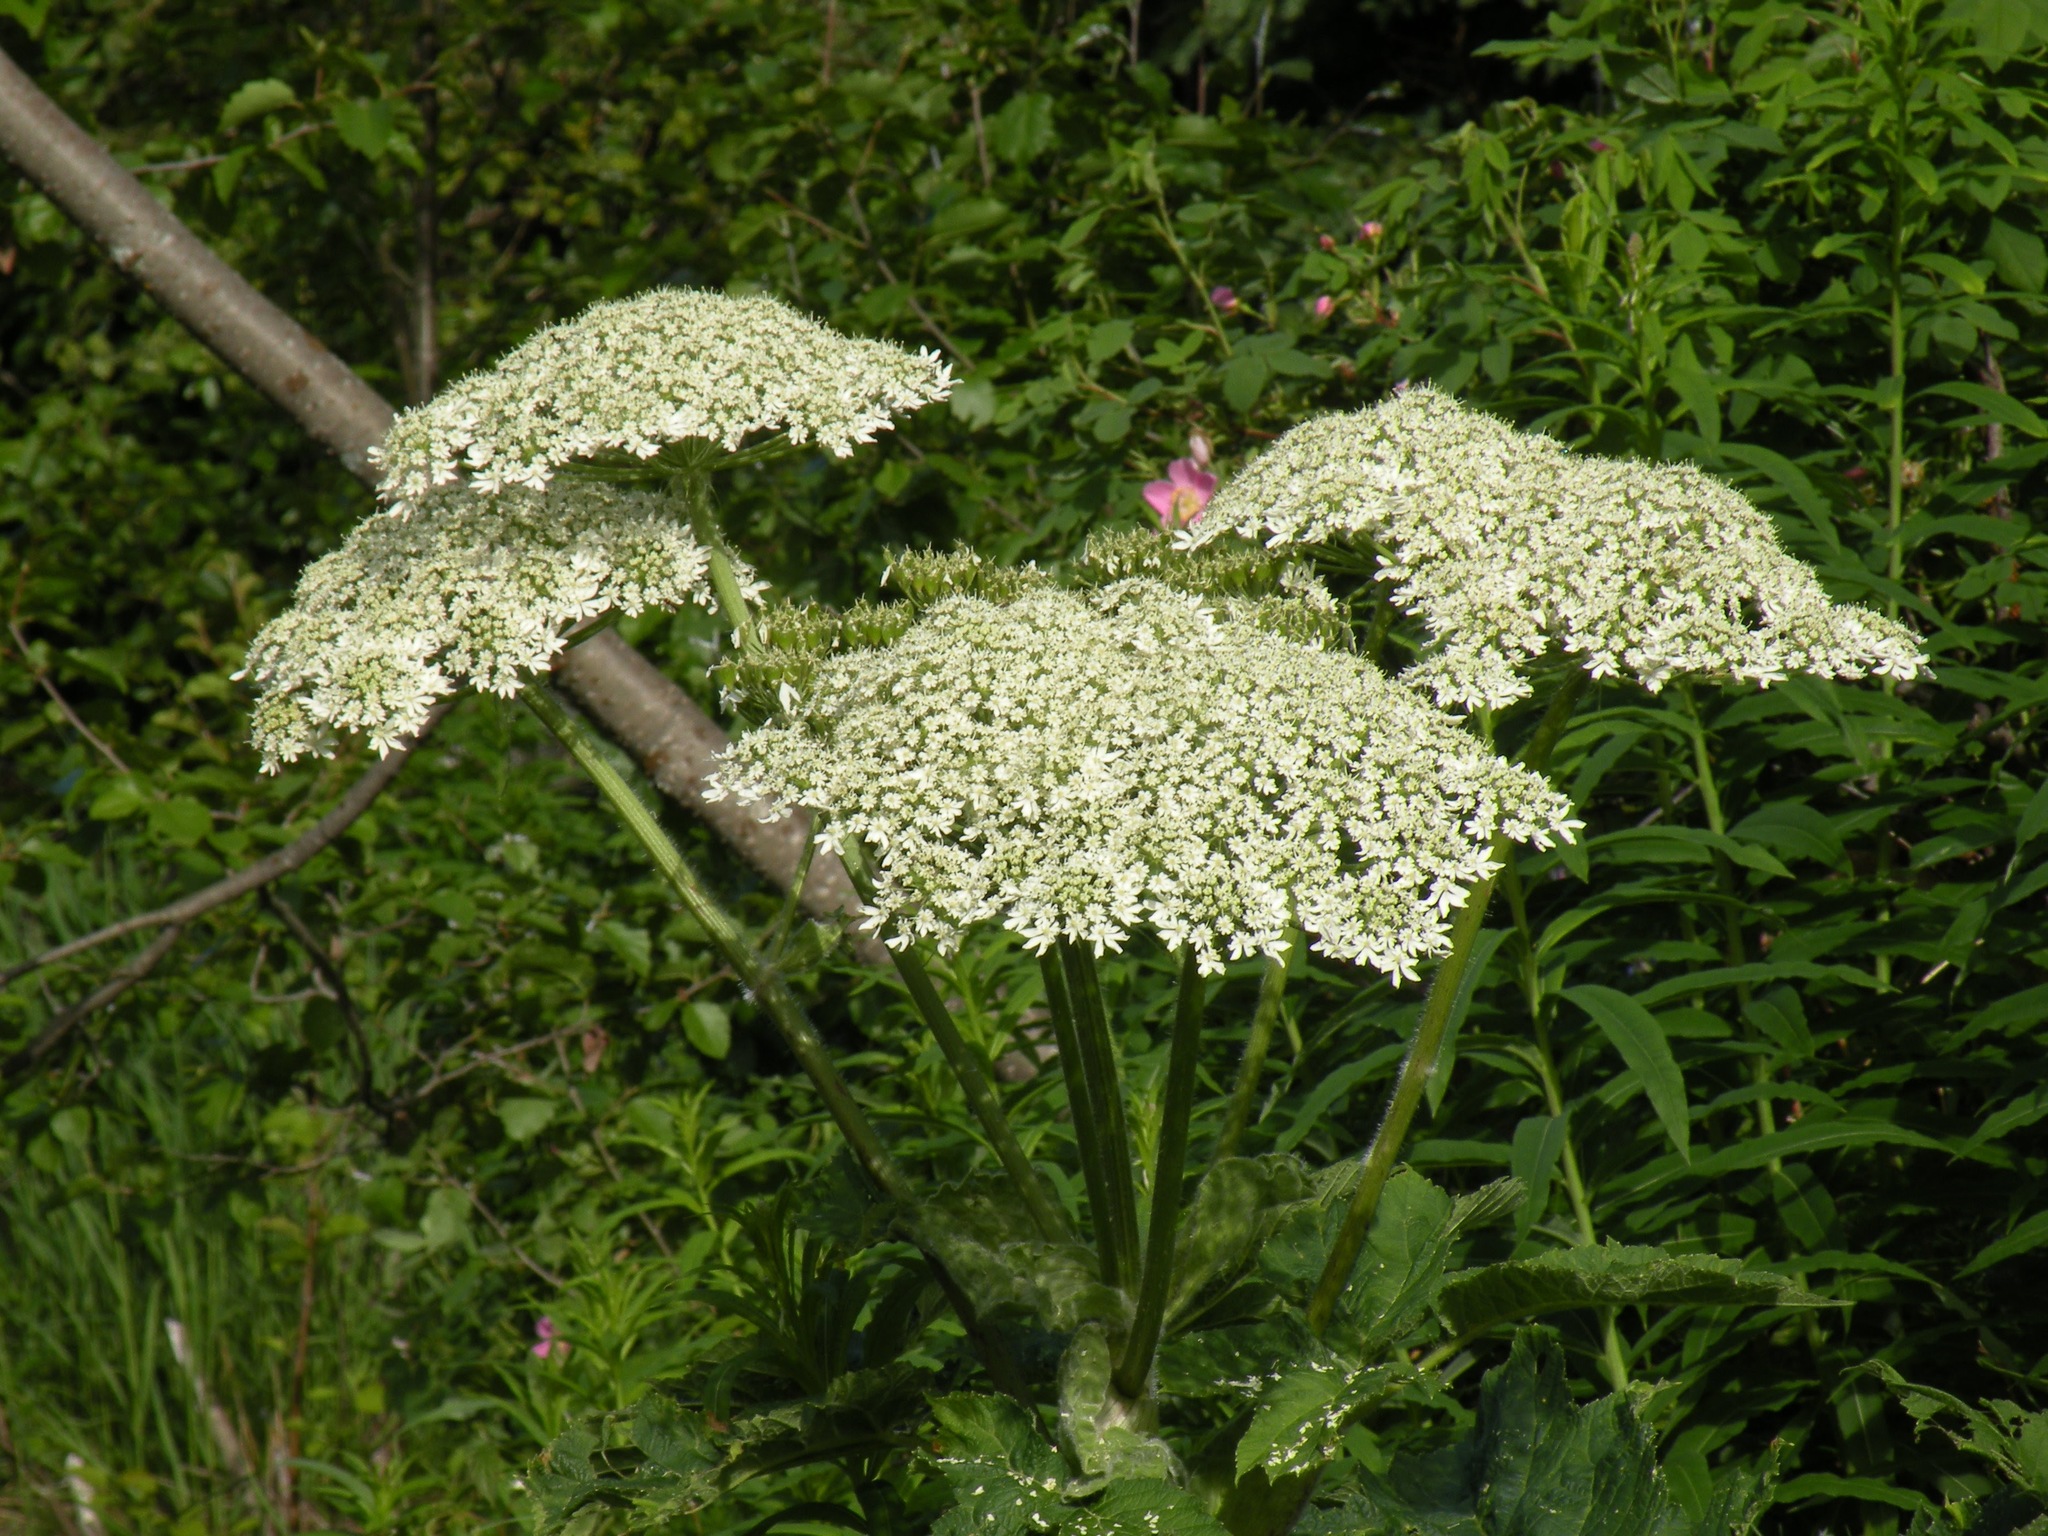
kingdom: Plantae
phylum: Tracheophyta
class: Magnoliopsida
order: Apiales
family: Apiaceae
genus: Heracleum
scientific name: Heracleum maximum
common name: American cow parsnip
